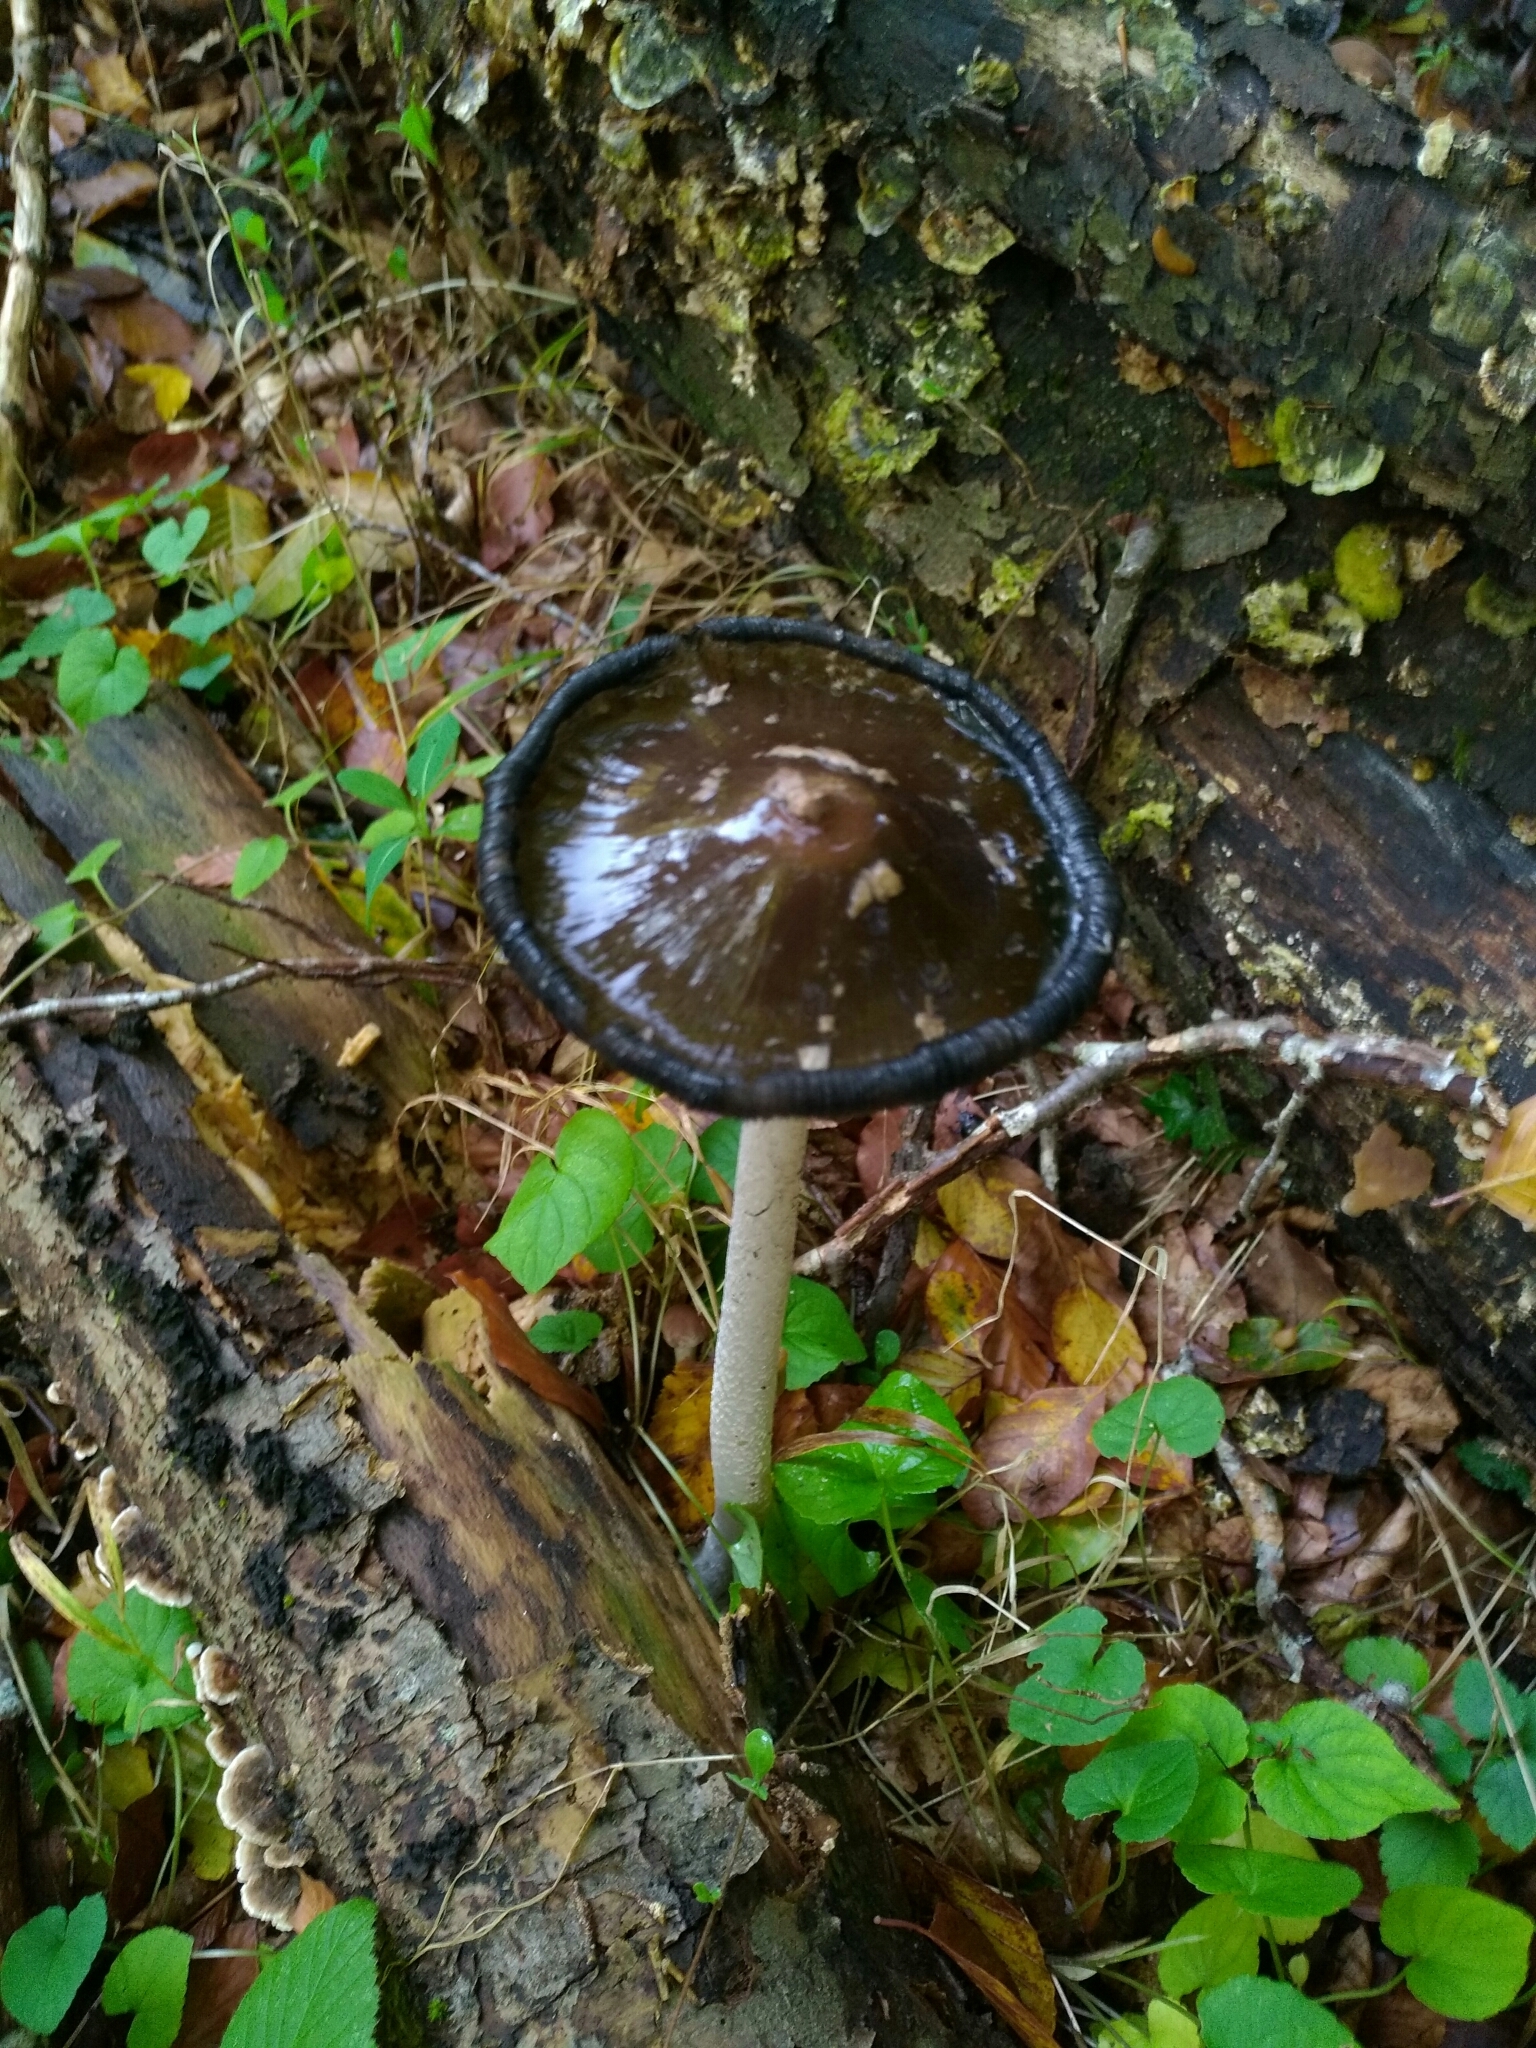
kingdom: Fungi
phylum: Basidiomycota
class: Agaricomycetes
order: Agaricales
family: Psathyrellaceae
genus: Coprinopsis
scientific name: Coprinopsis picacea
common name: Magpie inkcap
